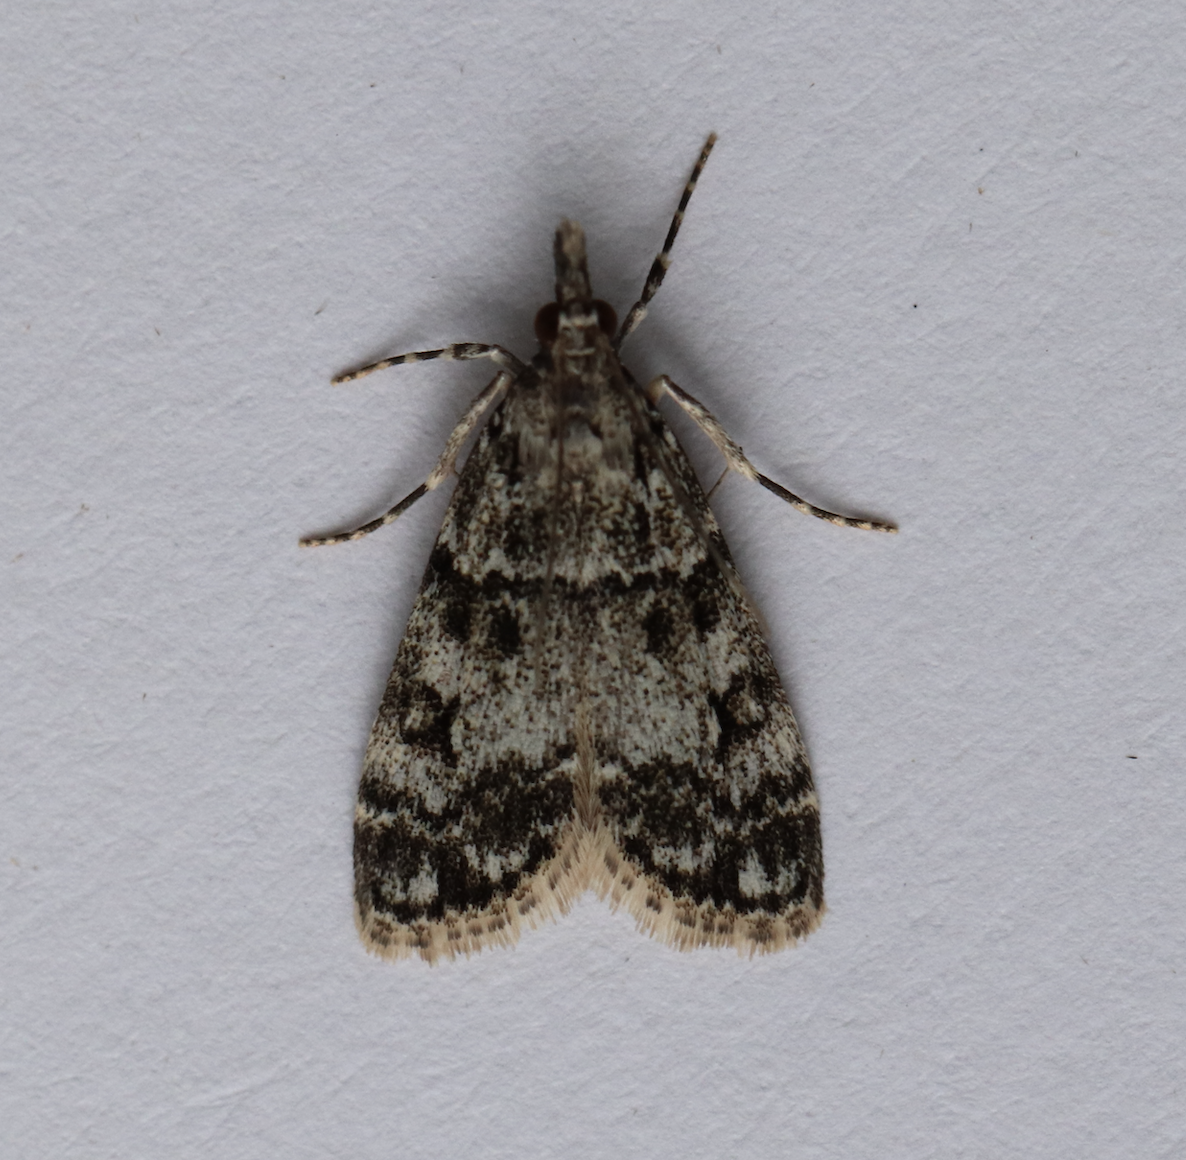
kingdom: Animalia
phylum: Arthropoda
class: Insecta
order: Lepidoptera
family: Crambidae
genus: Eudonia
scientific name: Eudonia lacustrata
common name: Little grey
